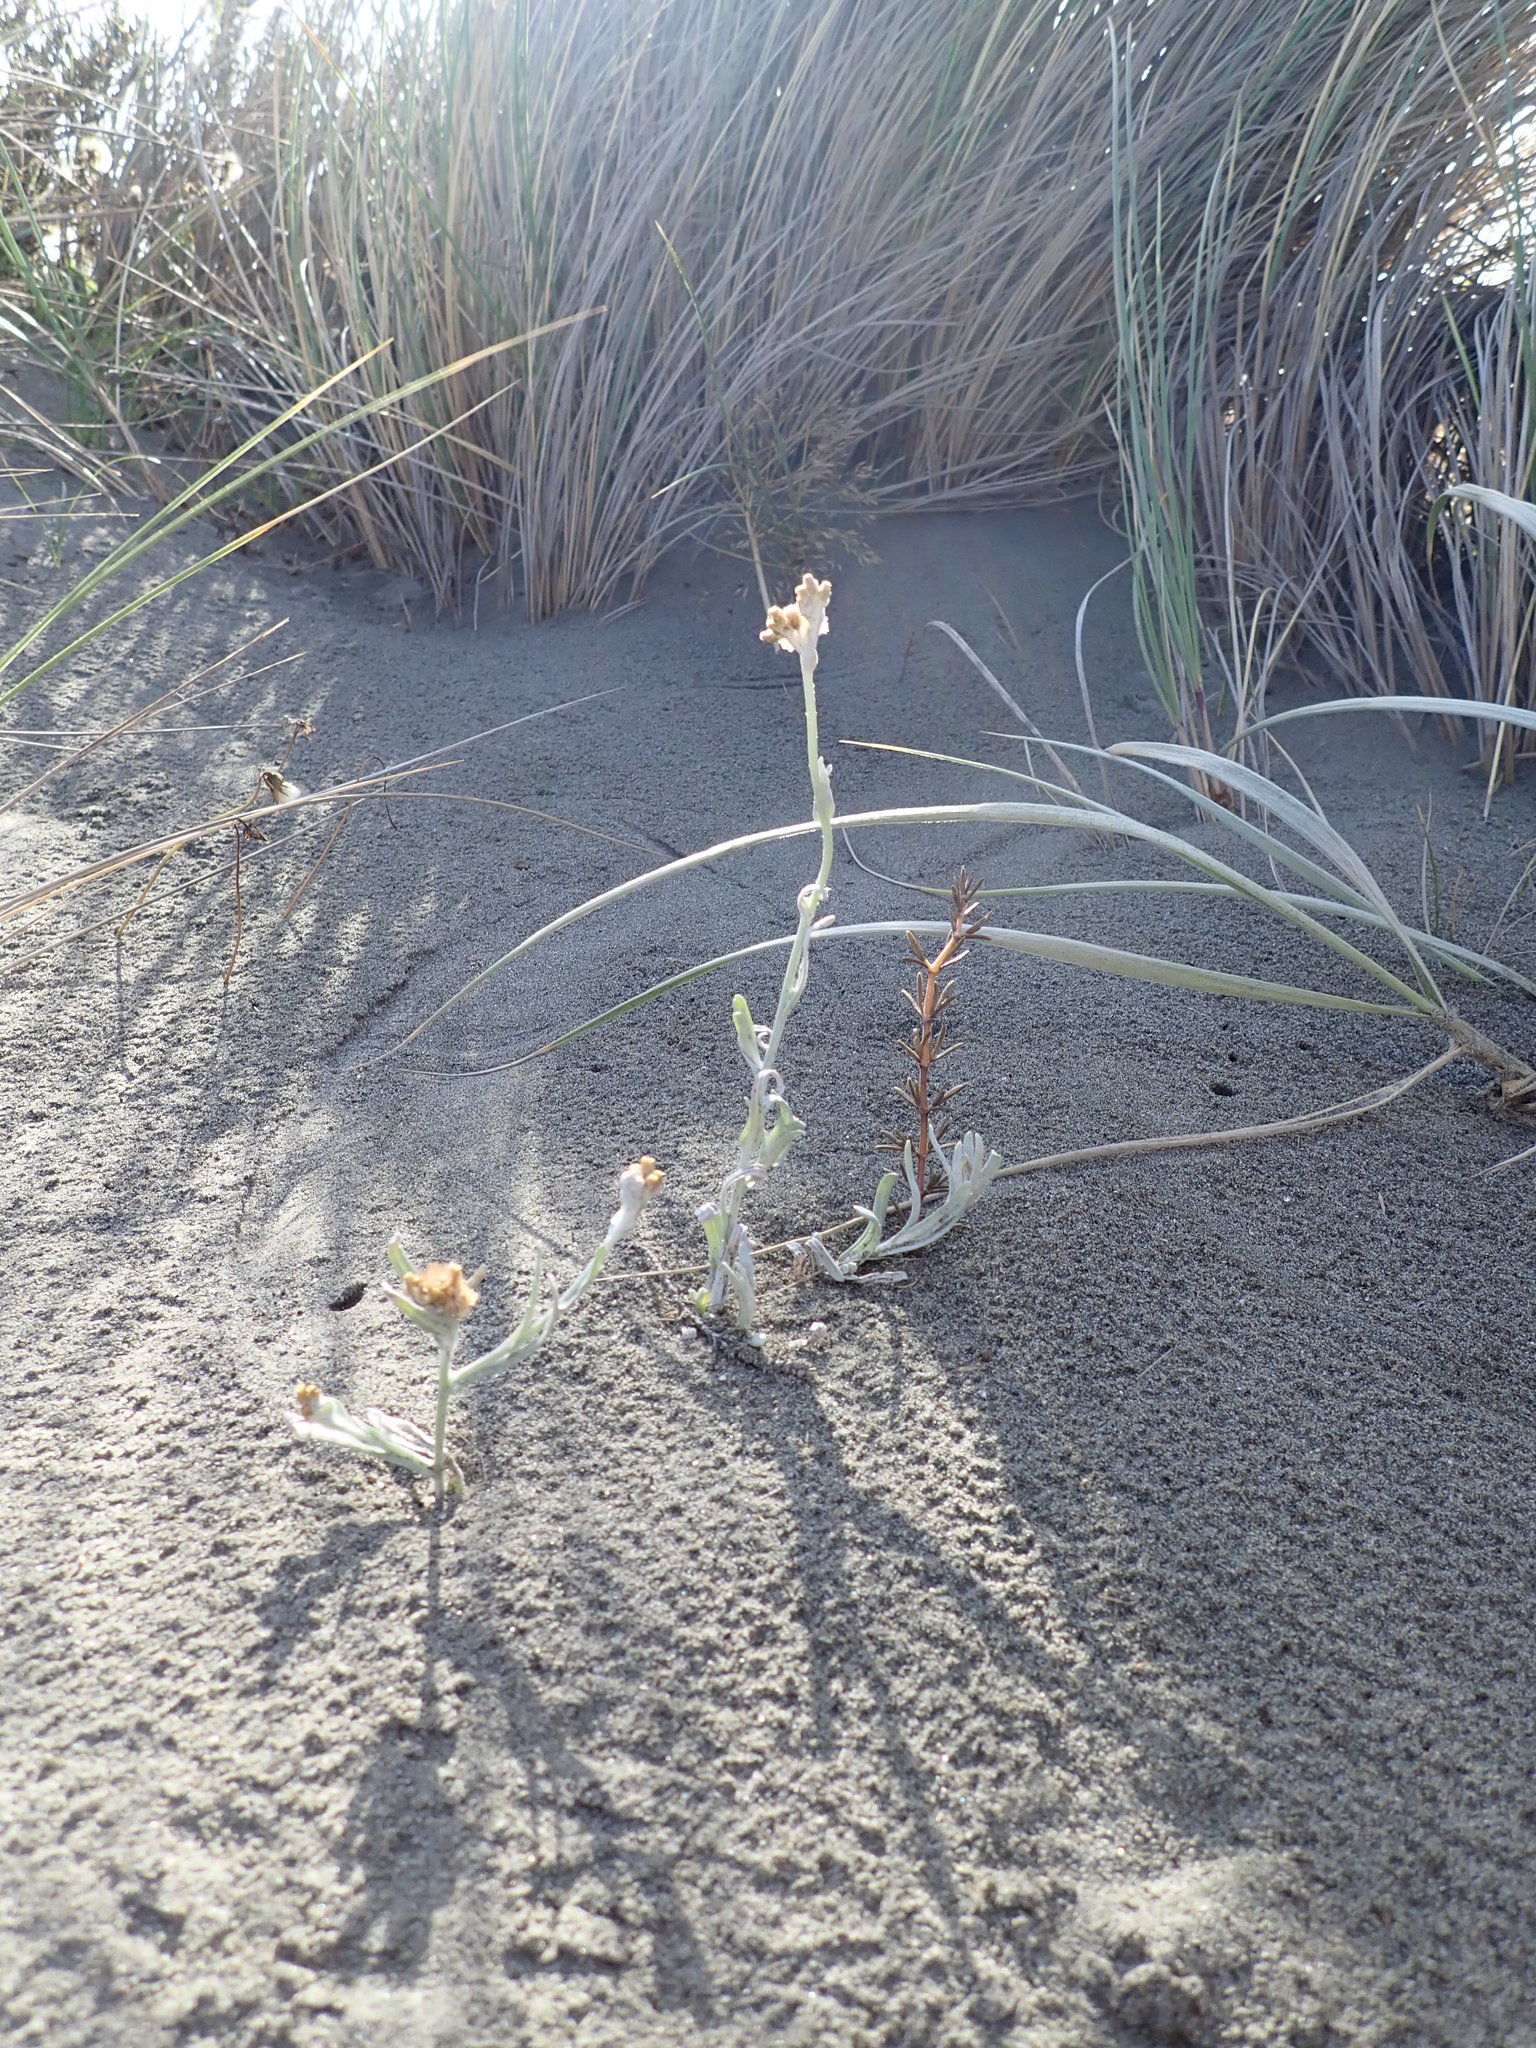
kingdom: Plantae
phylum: Tracheophyta
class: Magnoliopsida
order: Gentianales
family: Rubiaceae
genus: Coprosma
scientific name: Coprosma acerosa
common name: Sand coprosma
